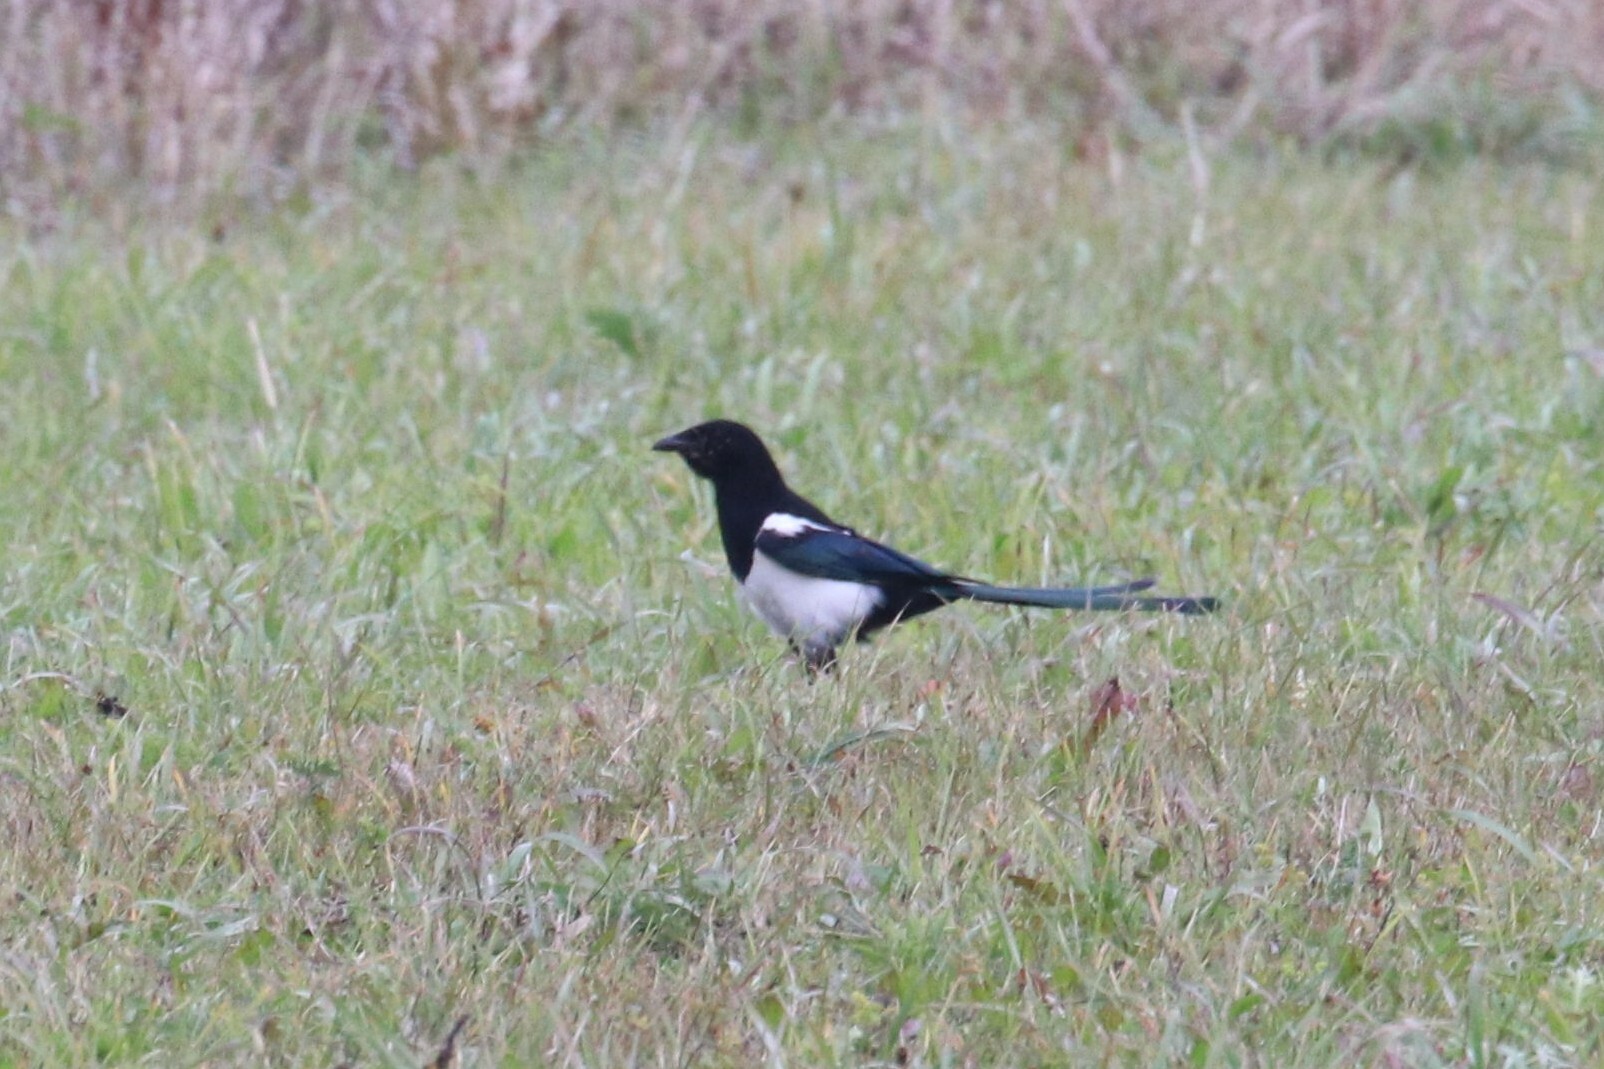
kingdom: Animalia
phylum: Chordata
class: Aves
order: Passeriformes
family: Corvidae
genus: Pica
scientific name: Pica pica
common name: Eurasian magpie
